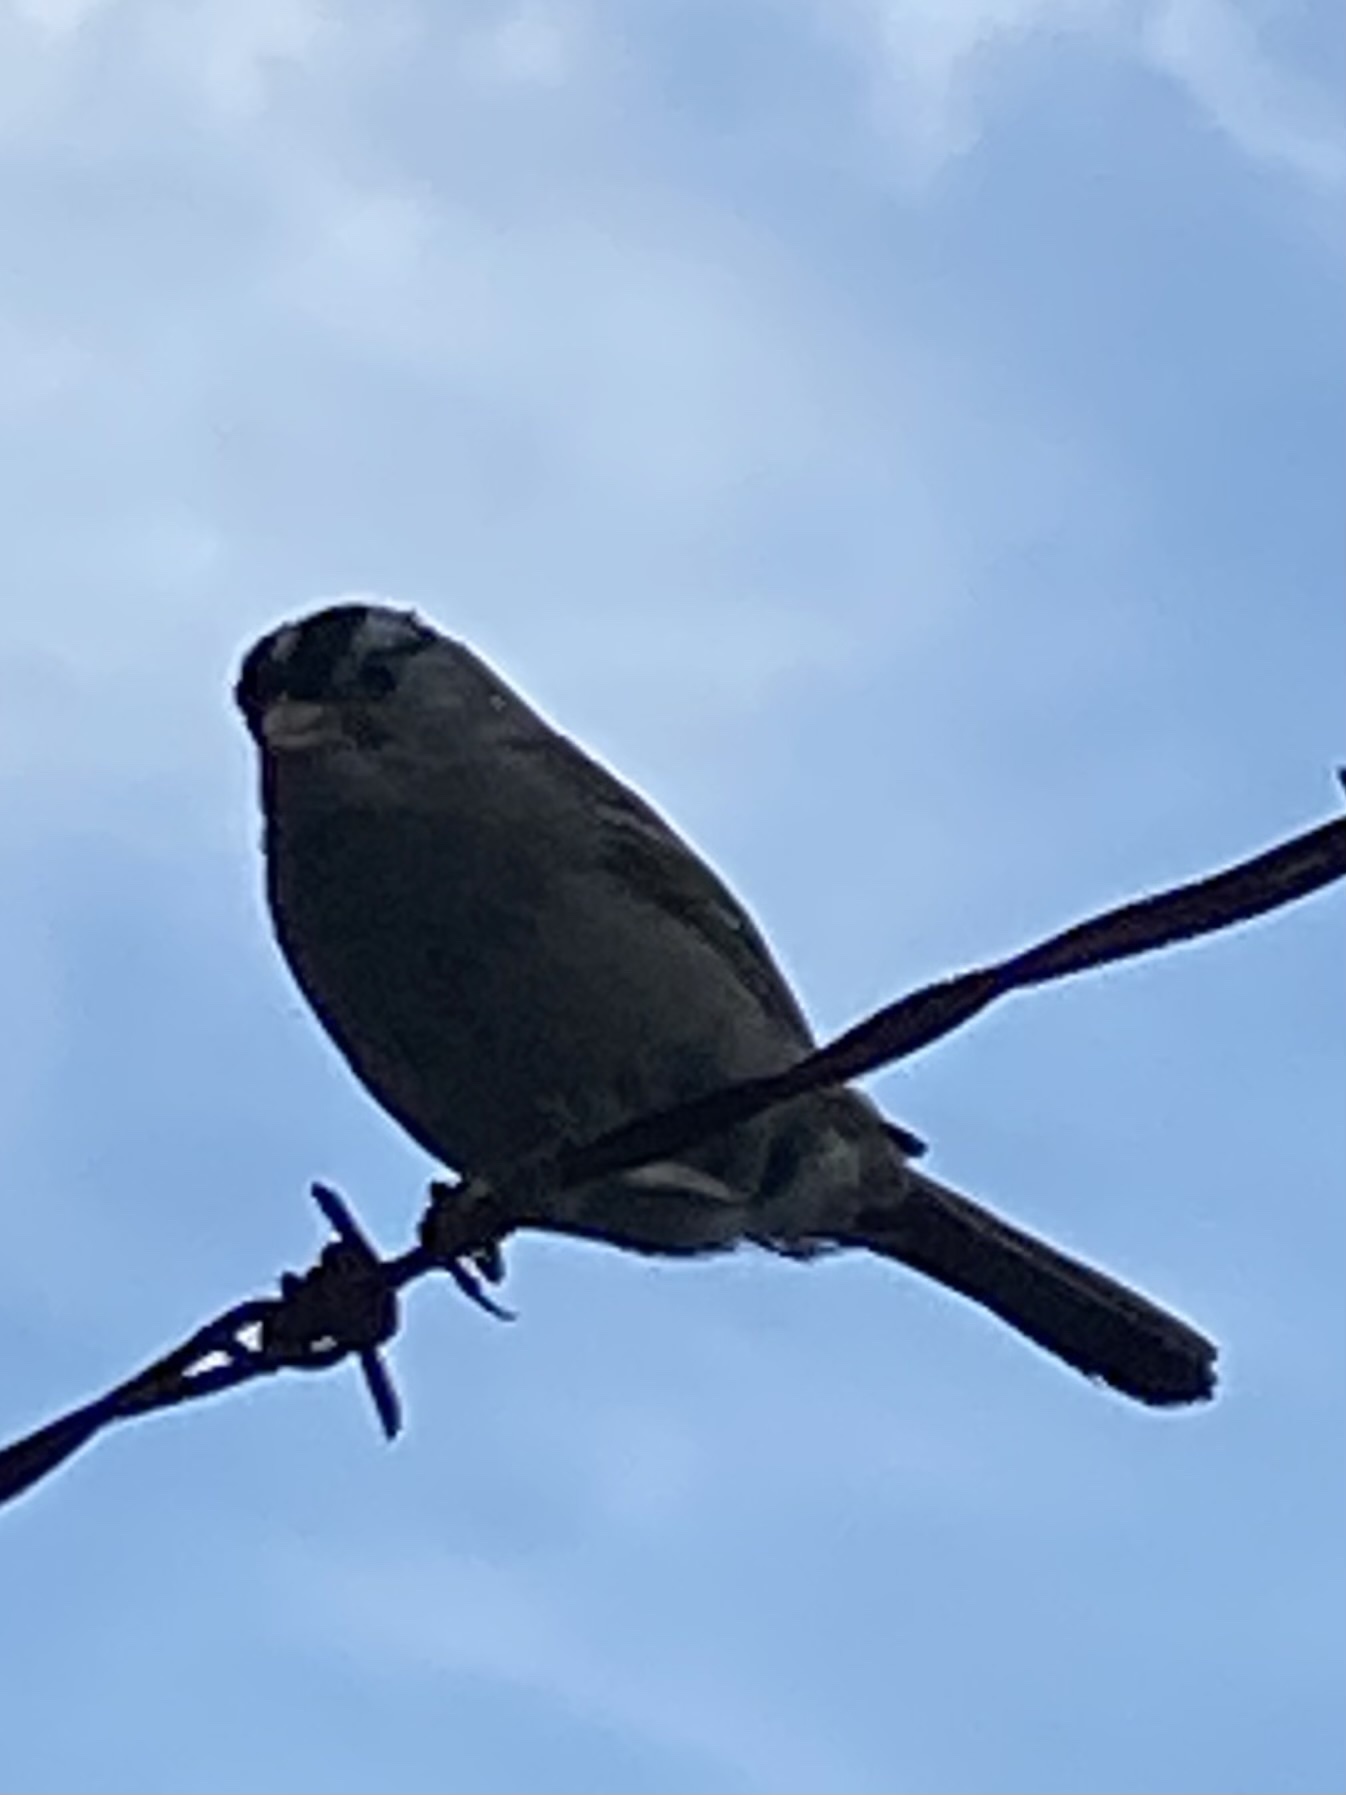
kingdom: Animalia
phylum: Chordata
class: Aves
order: Passeriformes
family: Passerellidae
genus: Zonotrichia
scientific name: Zonotrichia leucophrys
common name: White-crowned sparrow
